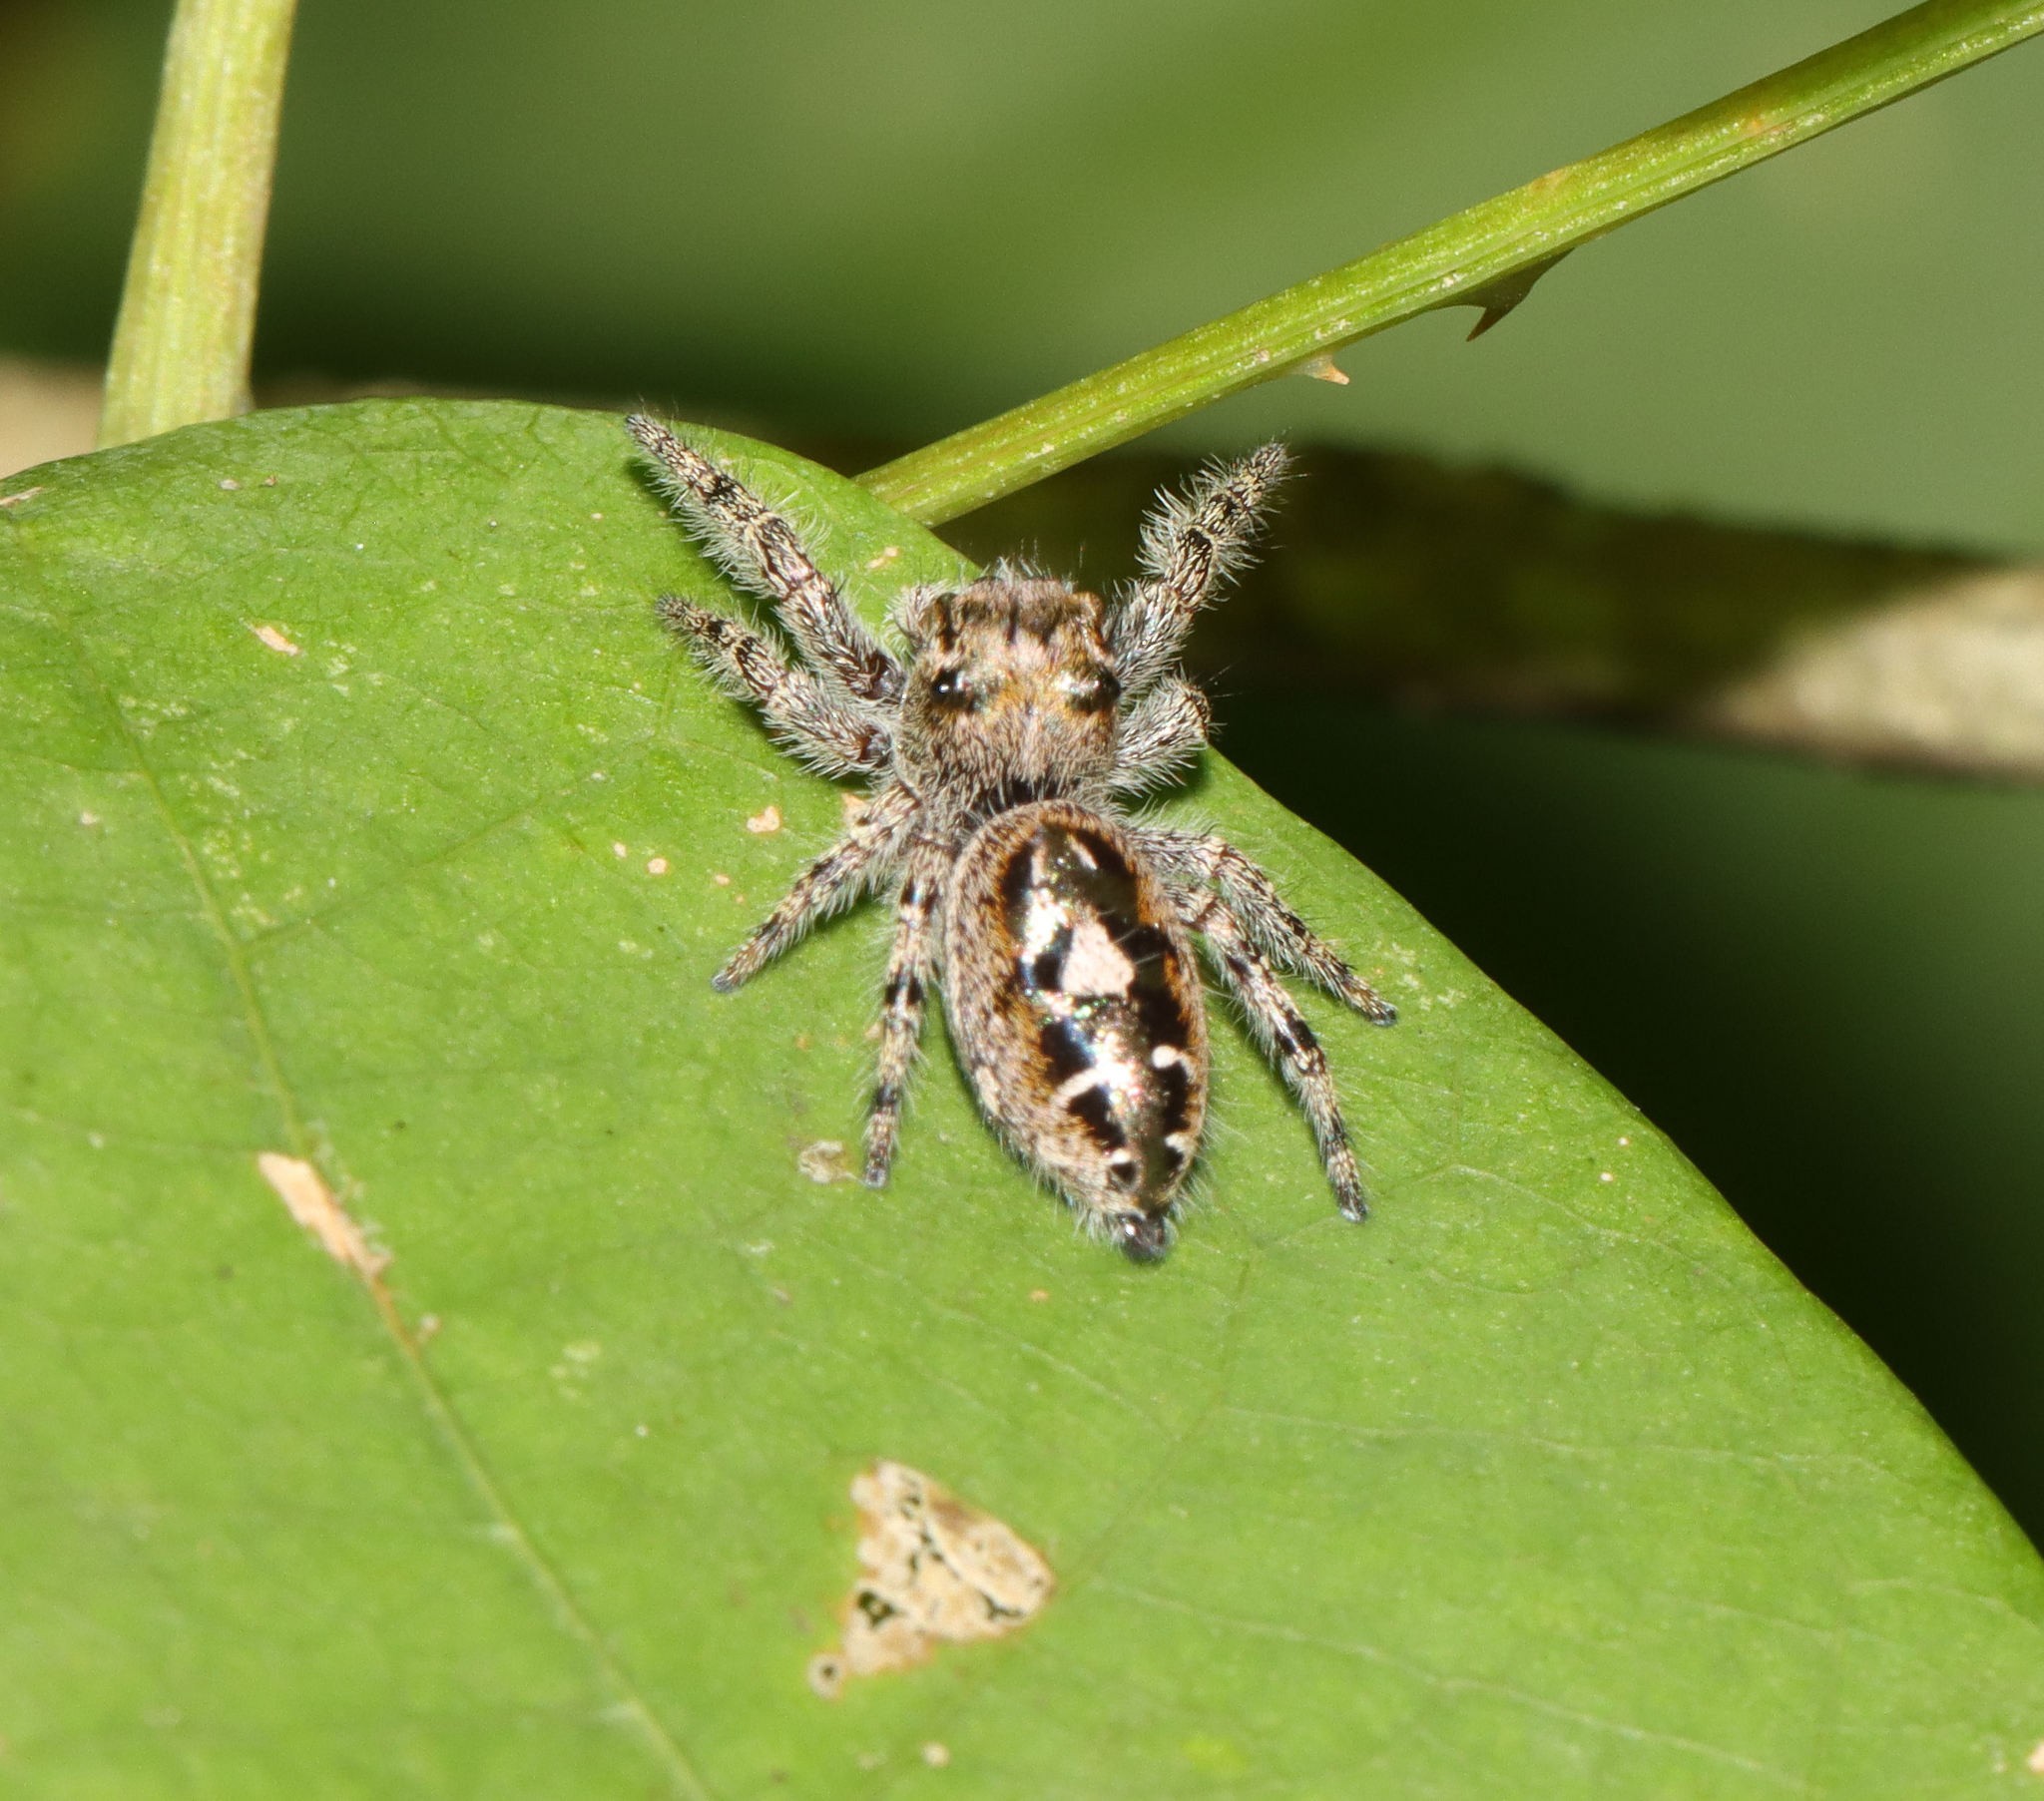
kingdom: Animalia
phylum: Arthropoda
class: Arachnida
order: Araneae
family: Salticidae
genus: Phidippus
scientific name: Phidippus putnami
